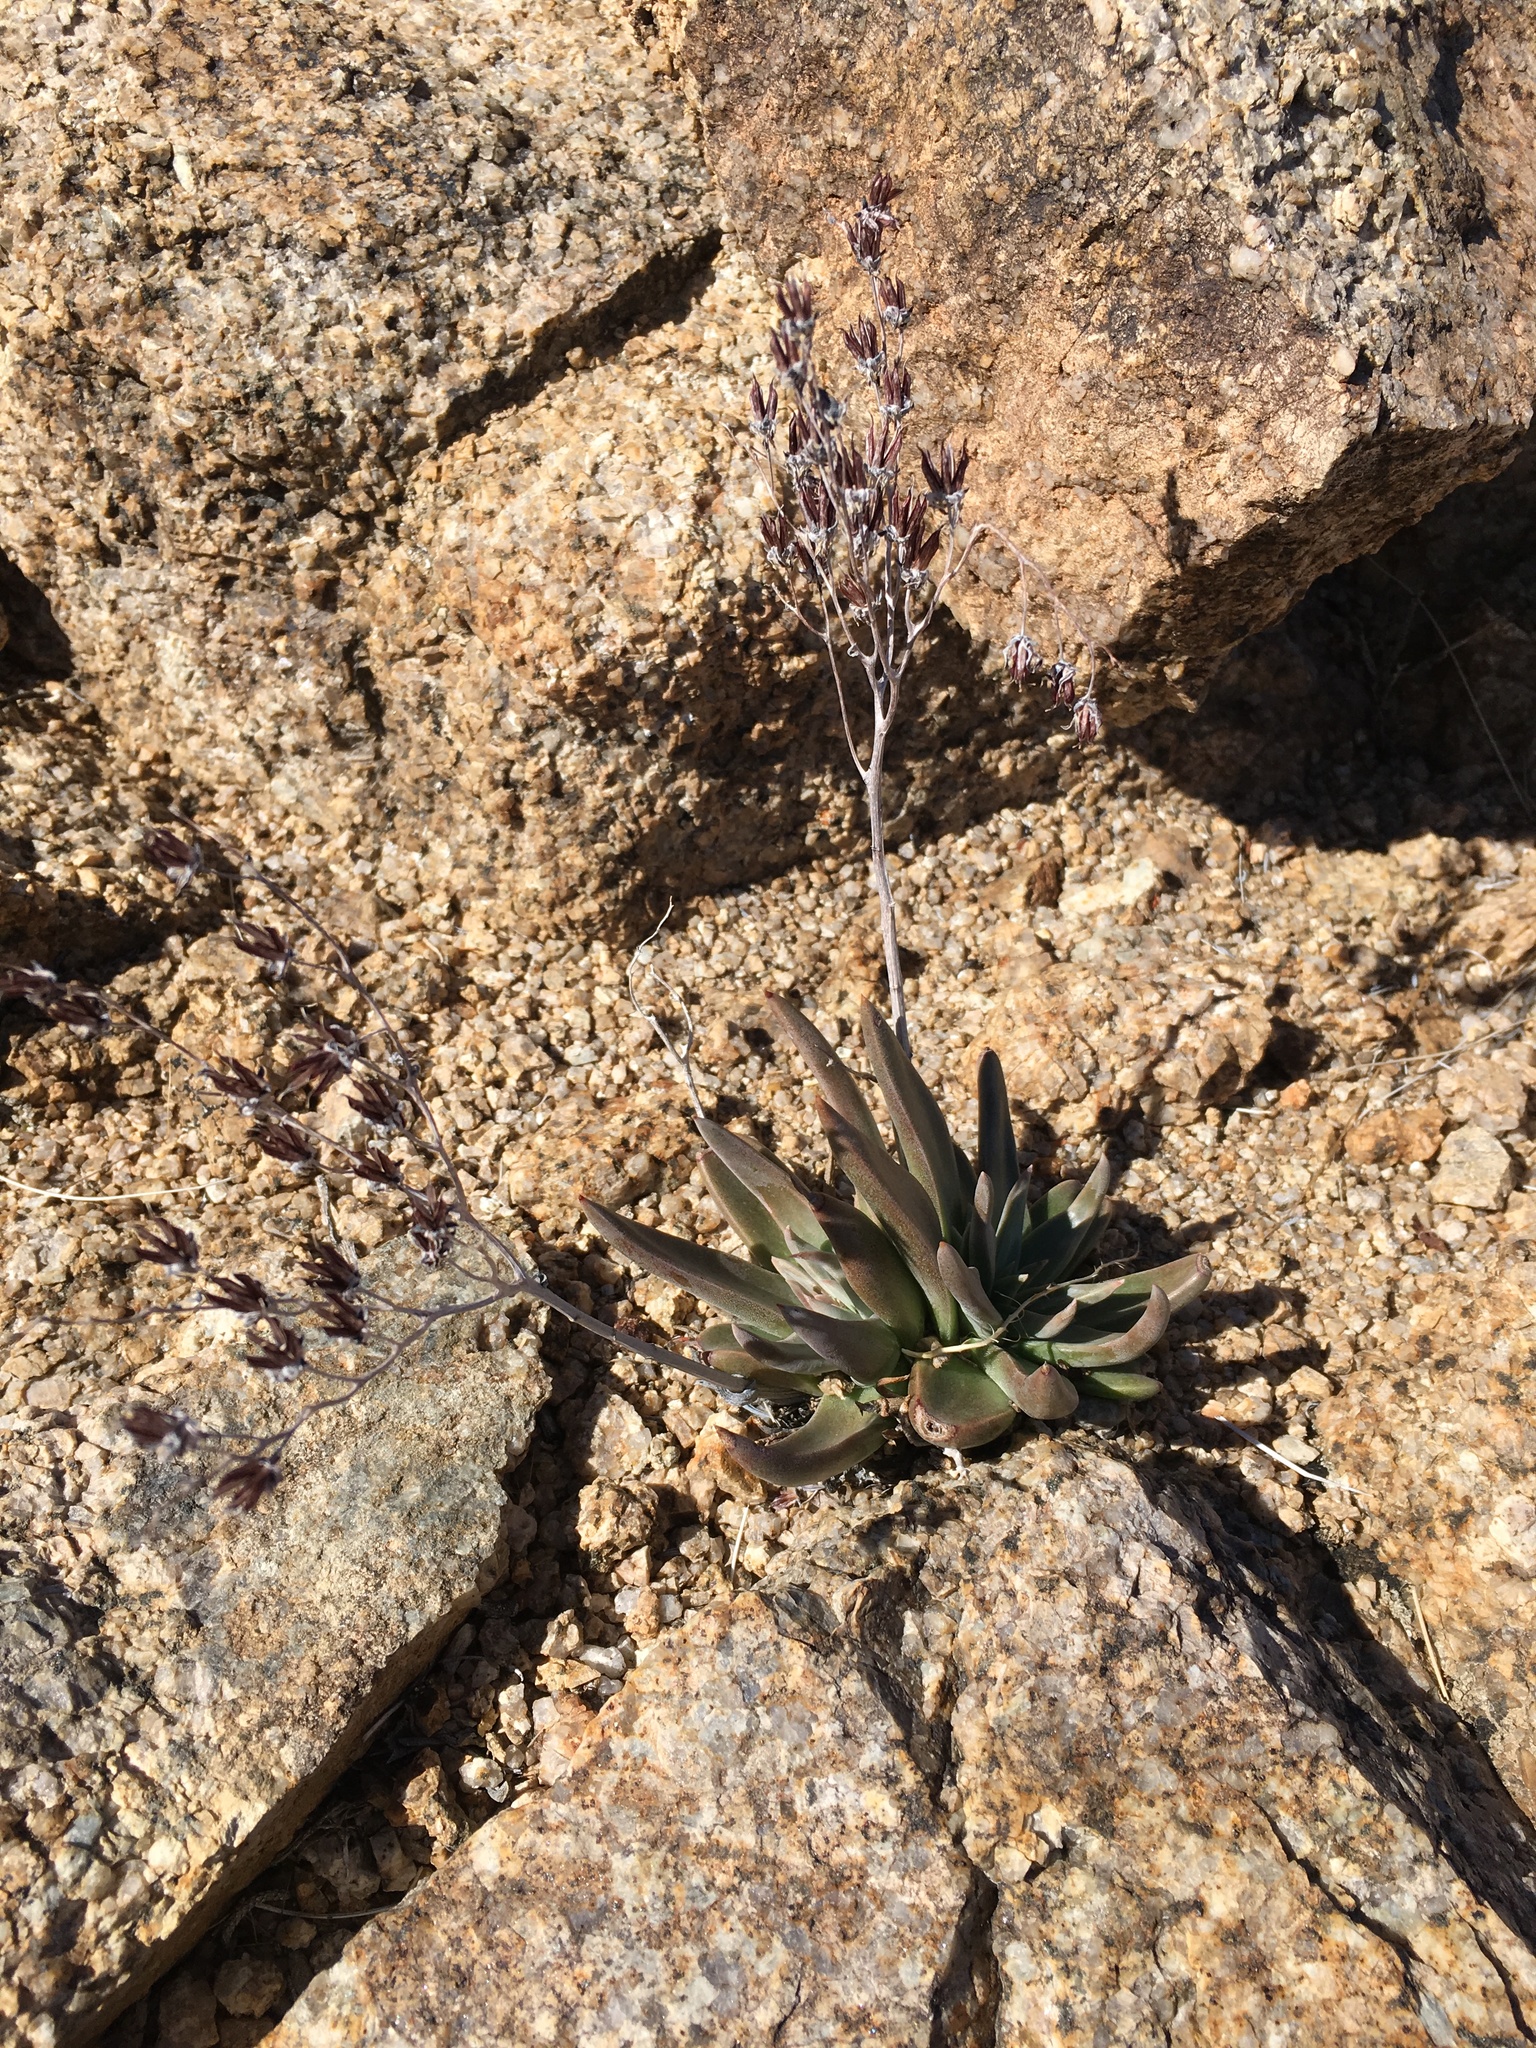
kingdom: Plantae
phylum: Tracheophyta
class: Magnoliopsida
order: Saxifragales
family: Crassulaceae
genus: Dudleya
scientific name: Dudleya saxosa
